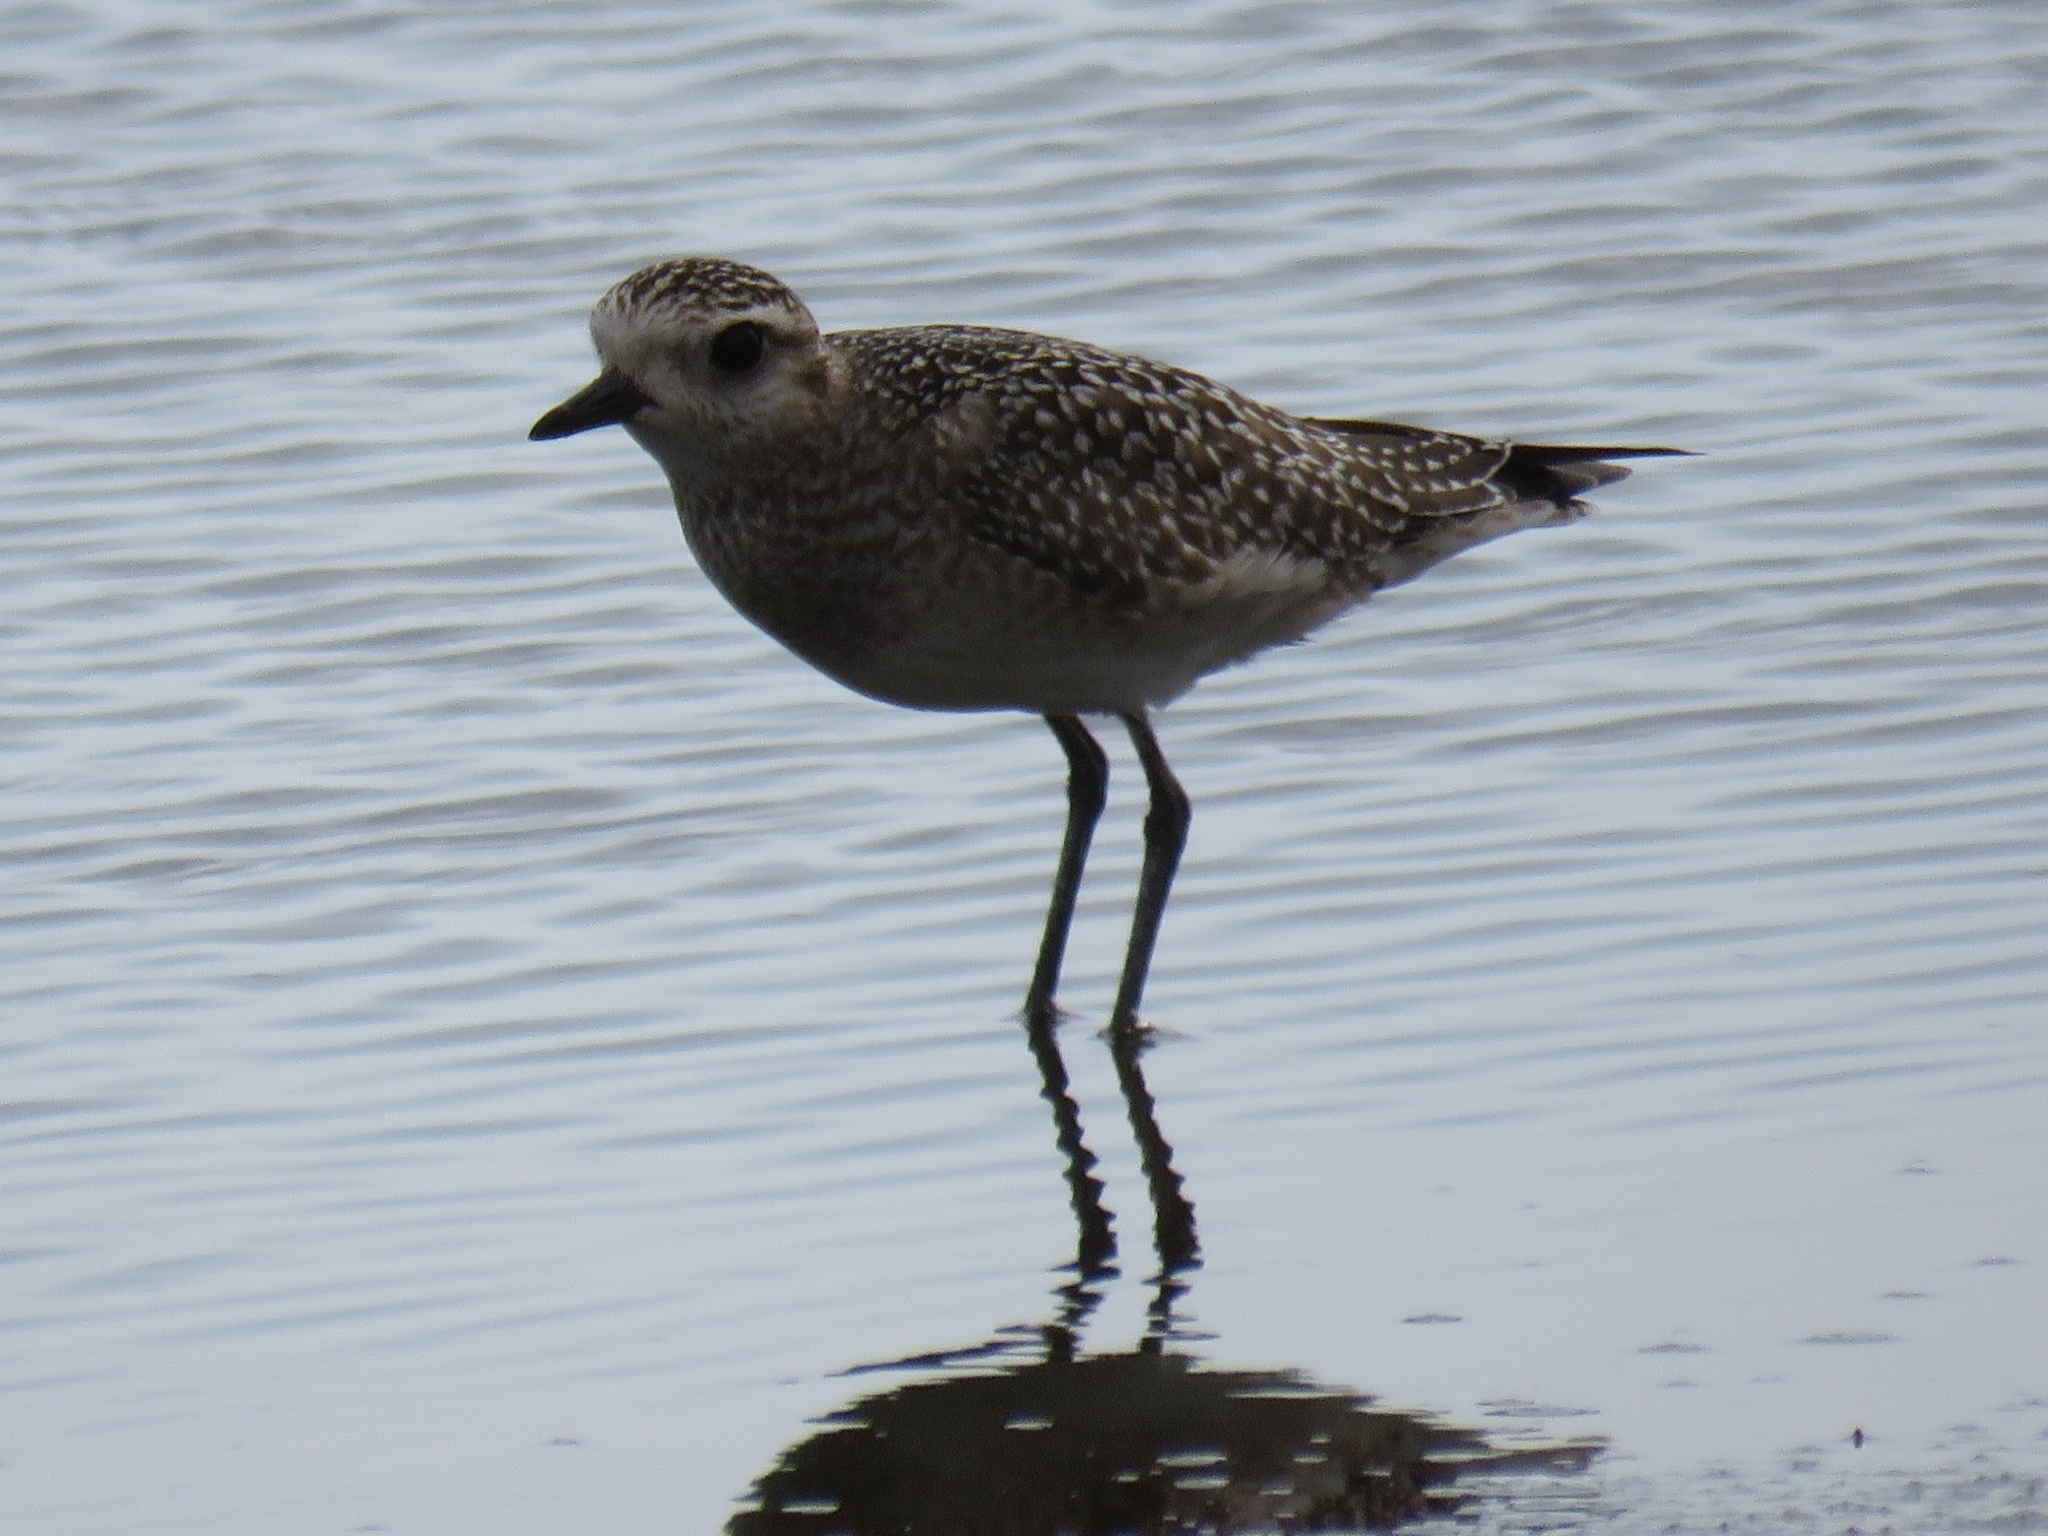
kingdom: Animalia
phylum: Chordata
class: Aves
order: Charadriiformes
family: Charadriidae
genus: Pluvialis
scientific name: Pluvialis dominica
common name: American golden plover
